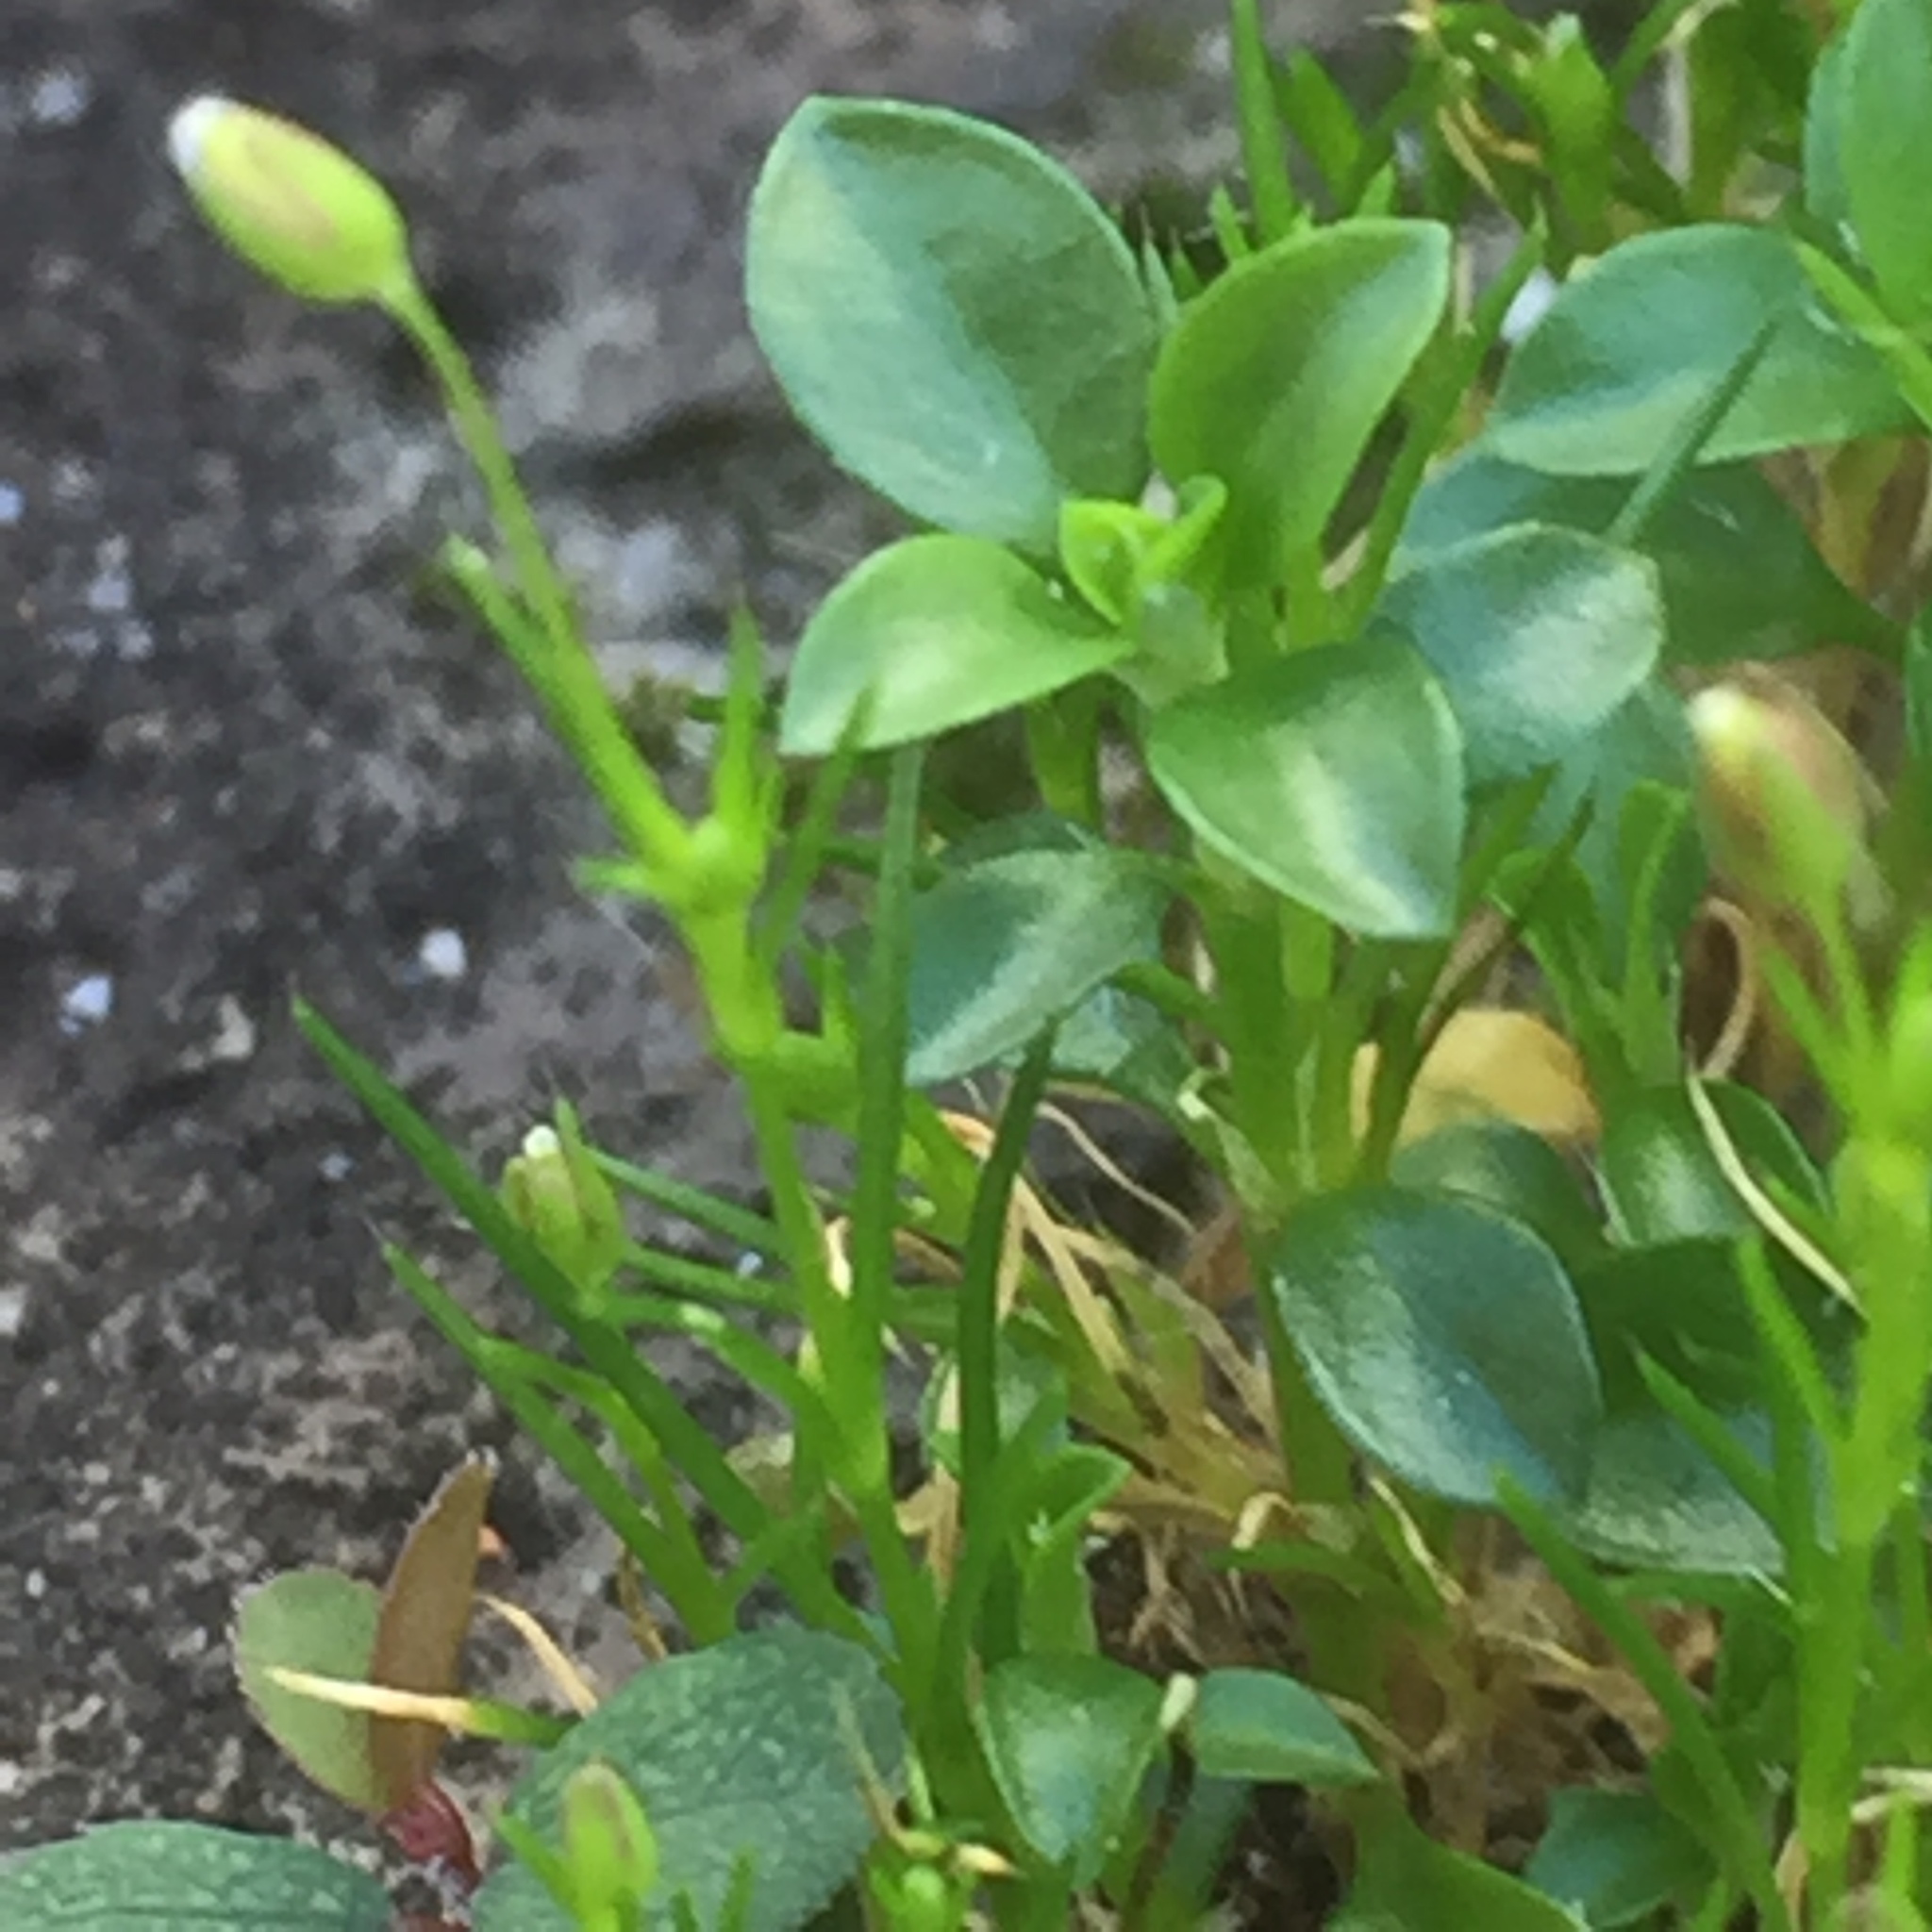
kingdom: Plantae
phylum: Tracheophyta
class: Magnoliopsida
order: Caryophyllales
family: Caryophyllaceae
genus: Sagina
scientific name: Sagina procumbens
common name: Procumbent pearlwort
